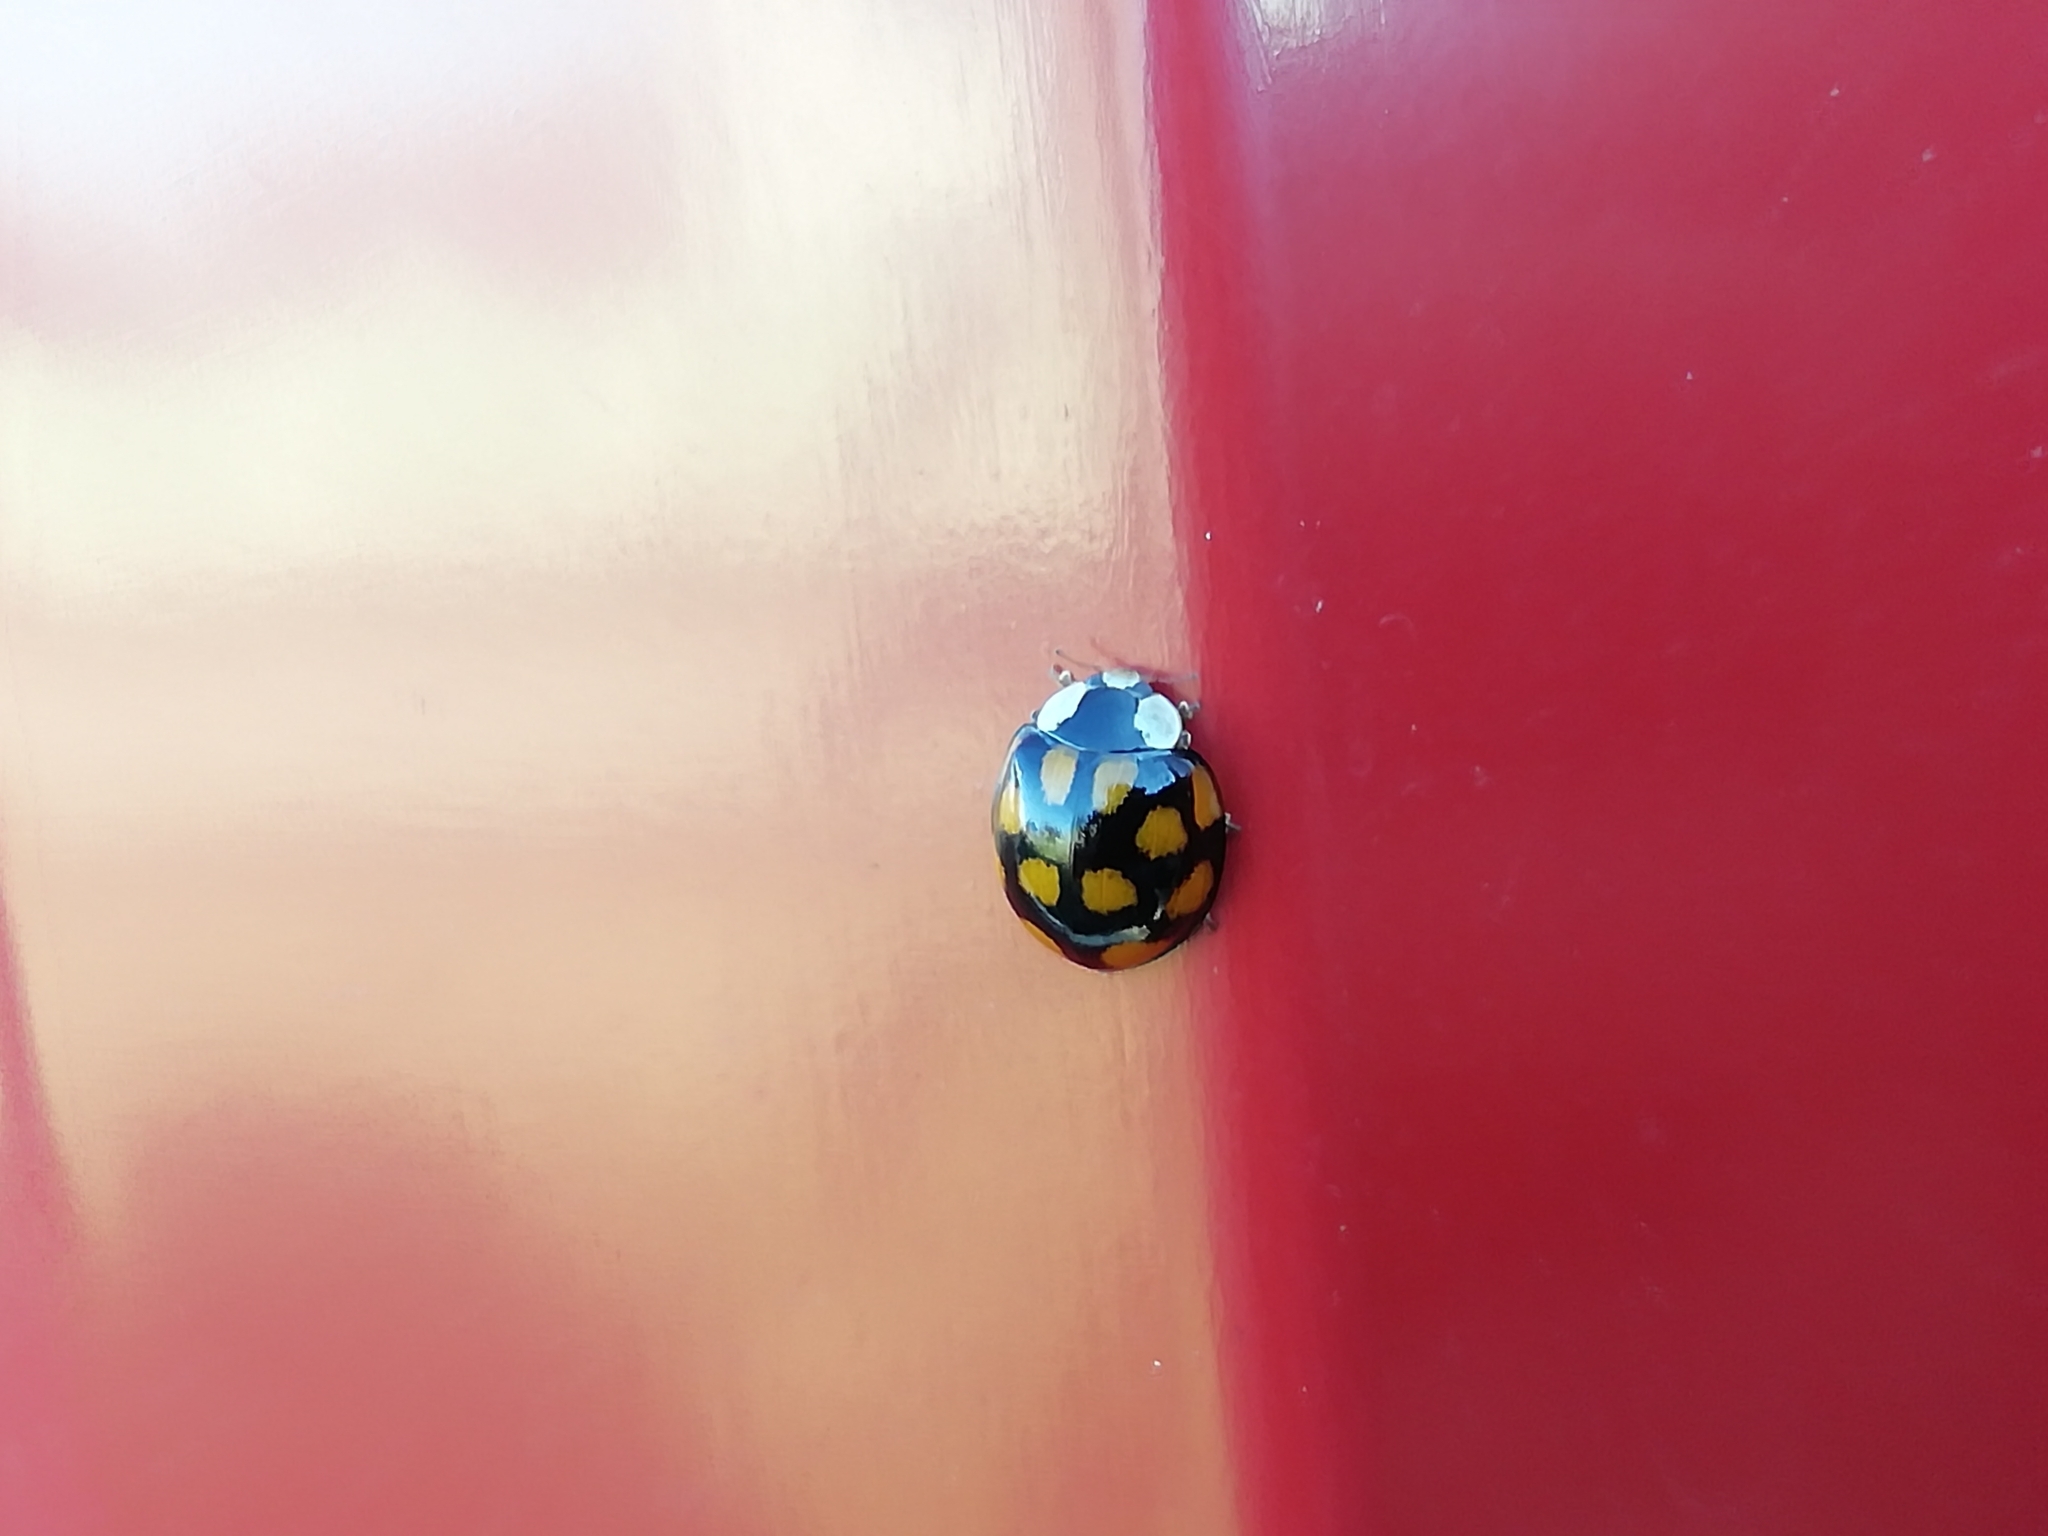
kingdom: Animalia
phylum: Arthropoda
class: Insecta
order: Coleoptera
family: Coccinellidae
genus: Harmonia
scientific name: Harmonia axyridis
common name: Harlequin ladybird
